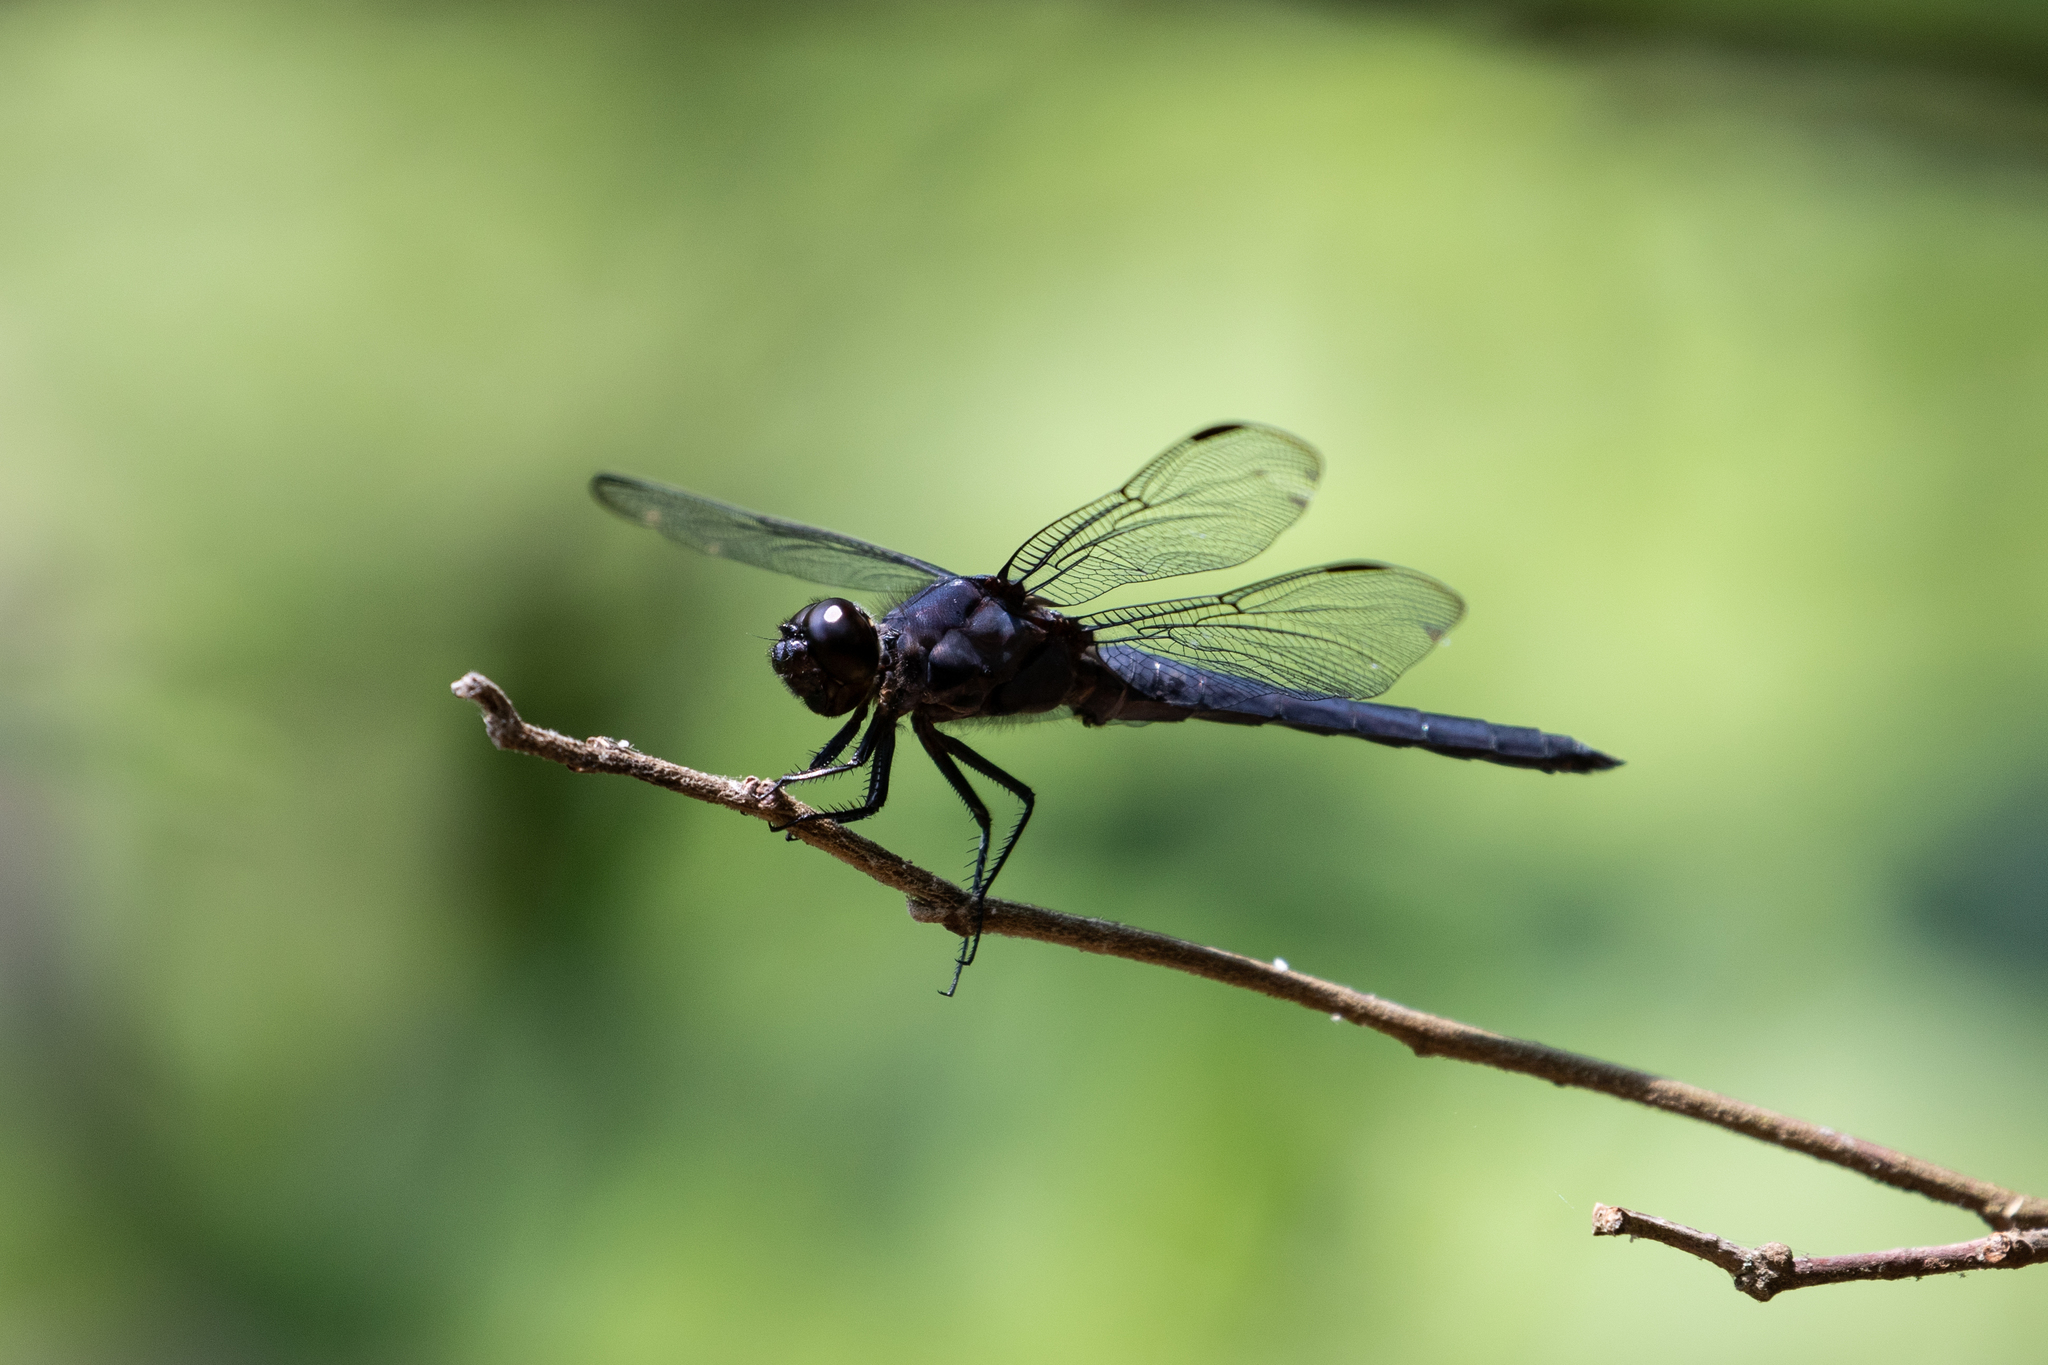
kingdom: Animalia
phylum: Arthropoda
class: Insecta
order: Odonata
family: Libellulidae
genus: Libellula
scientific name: Libellula incesta
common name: Slaty skimmer
